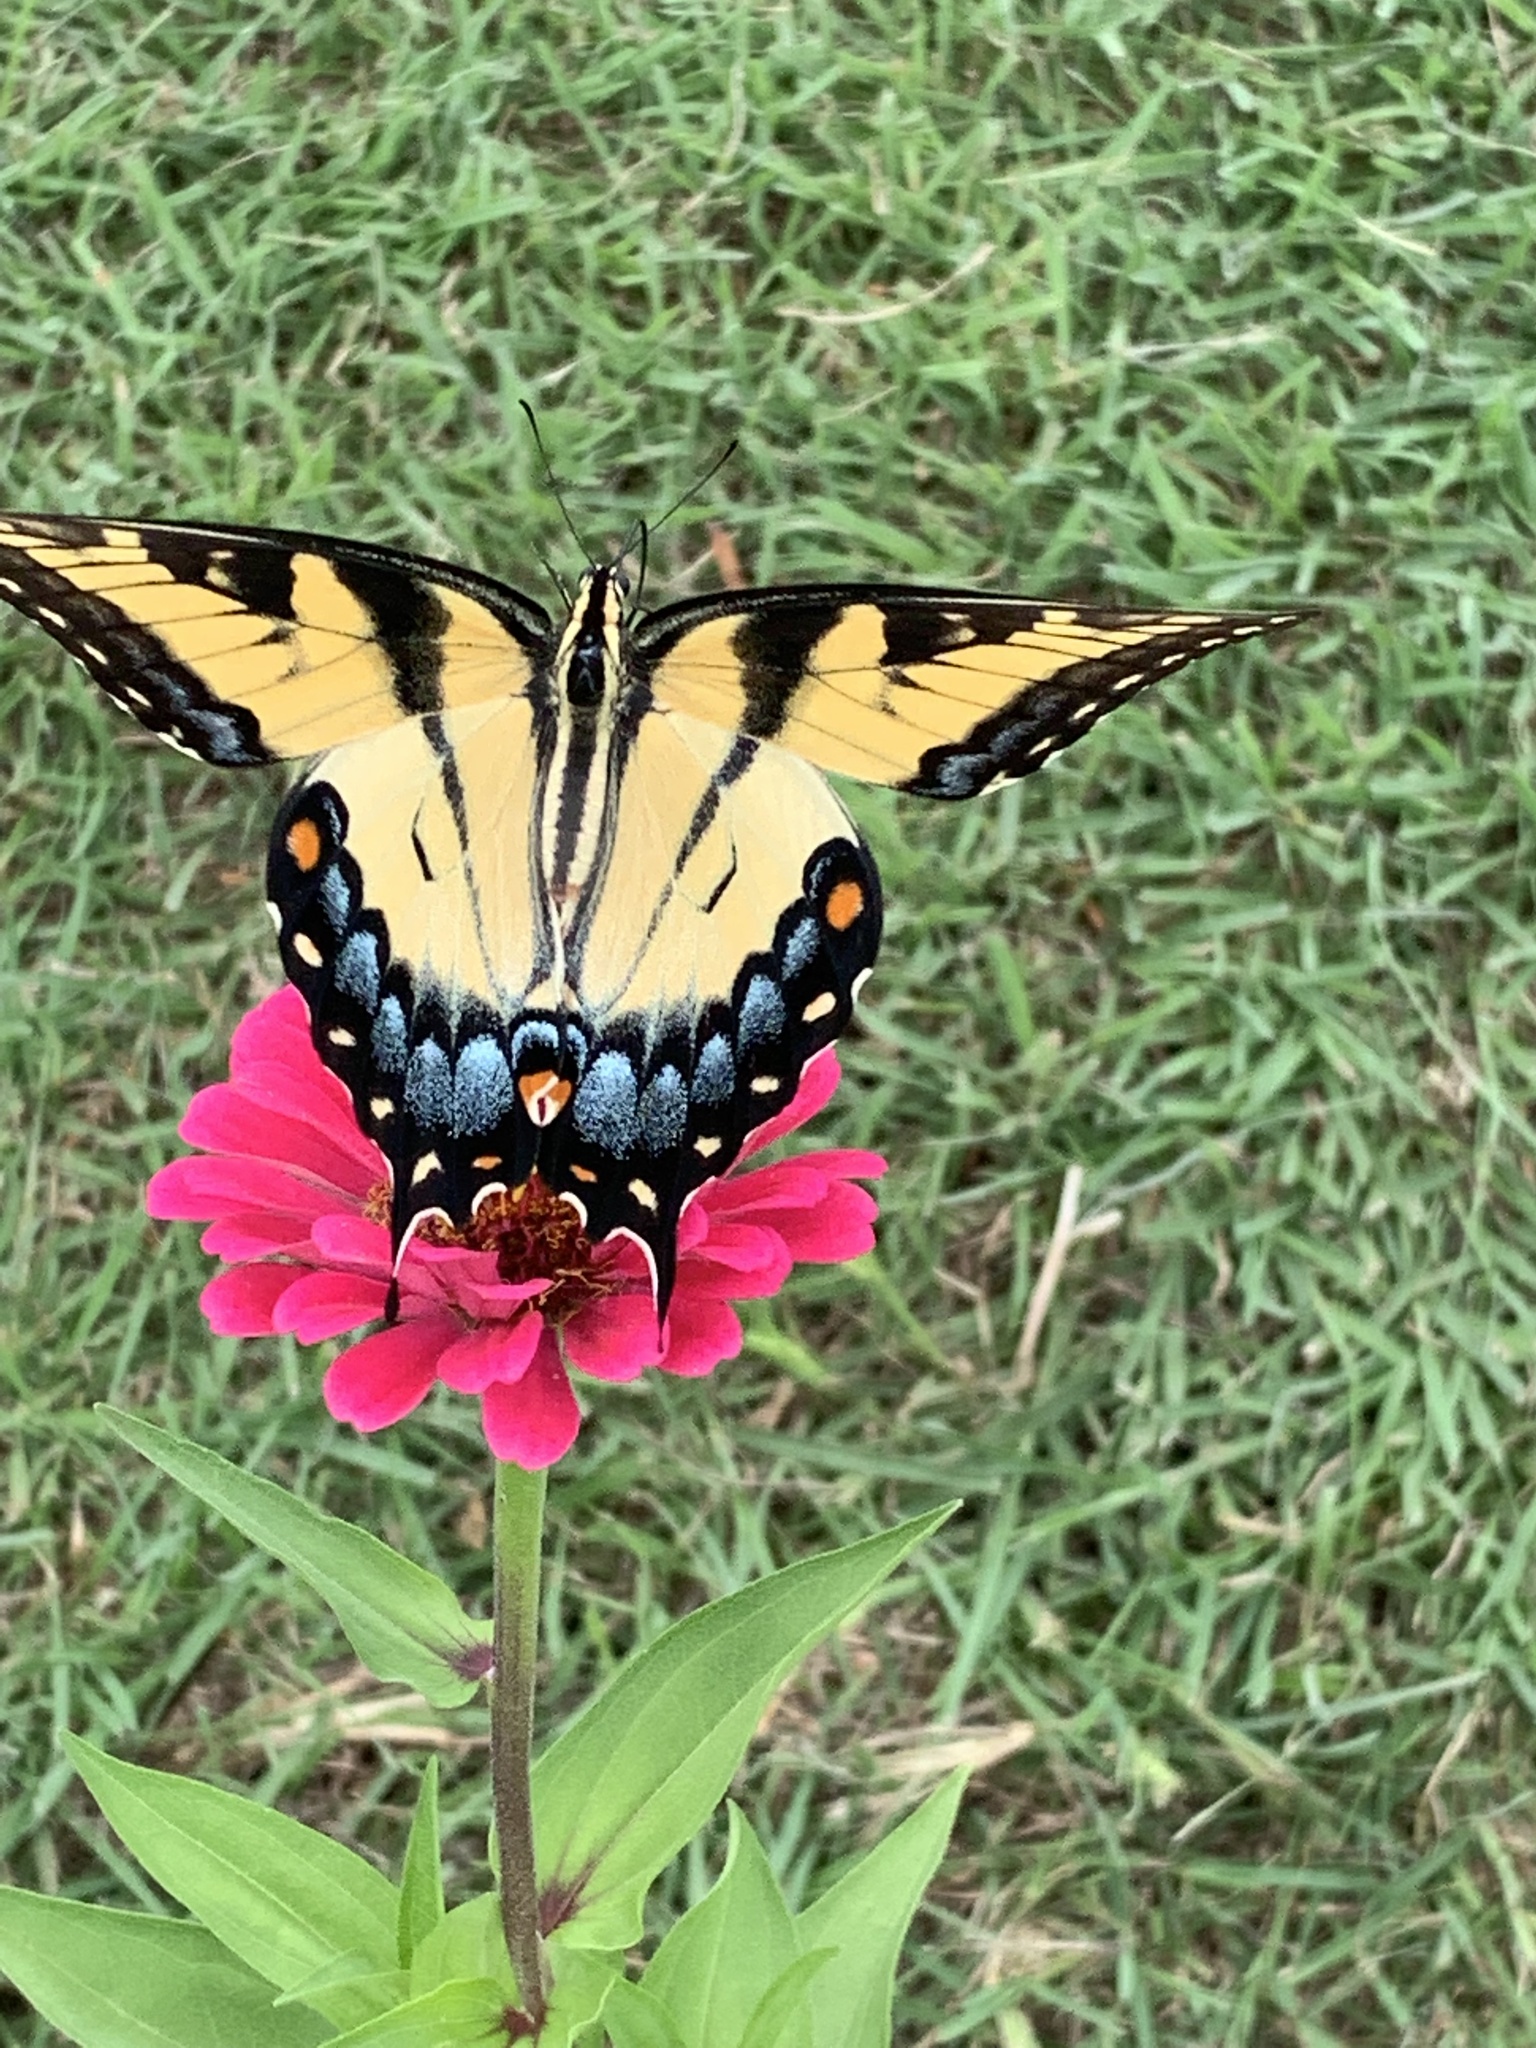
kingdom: Animalia
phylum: Arthropoda
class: Insecta
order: Lepidoptera
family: Papilionidae
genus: Papilio
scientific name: Papilio glaucus
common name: Tiger swallowtail
